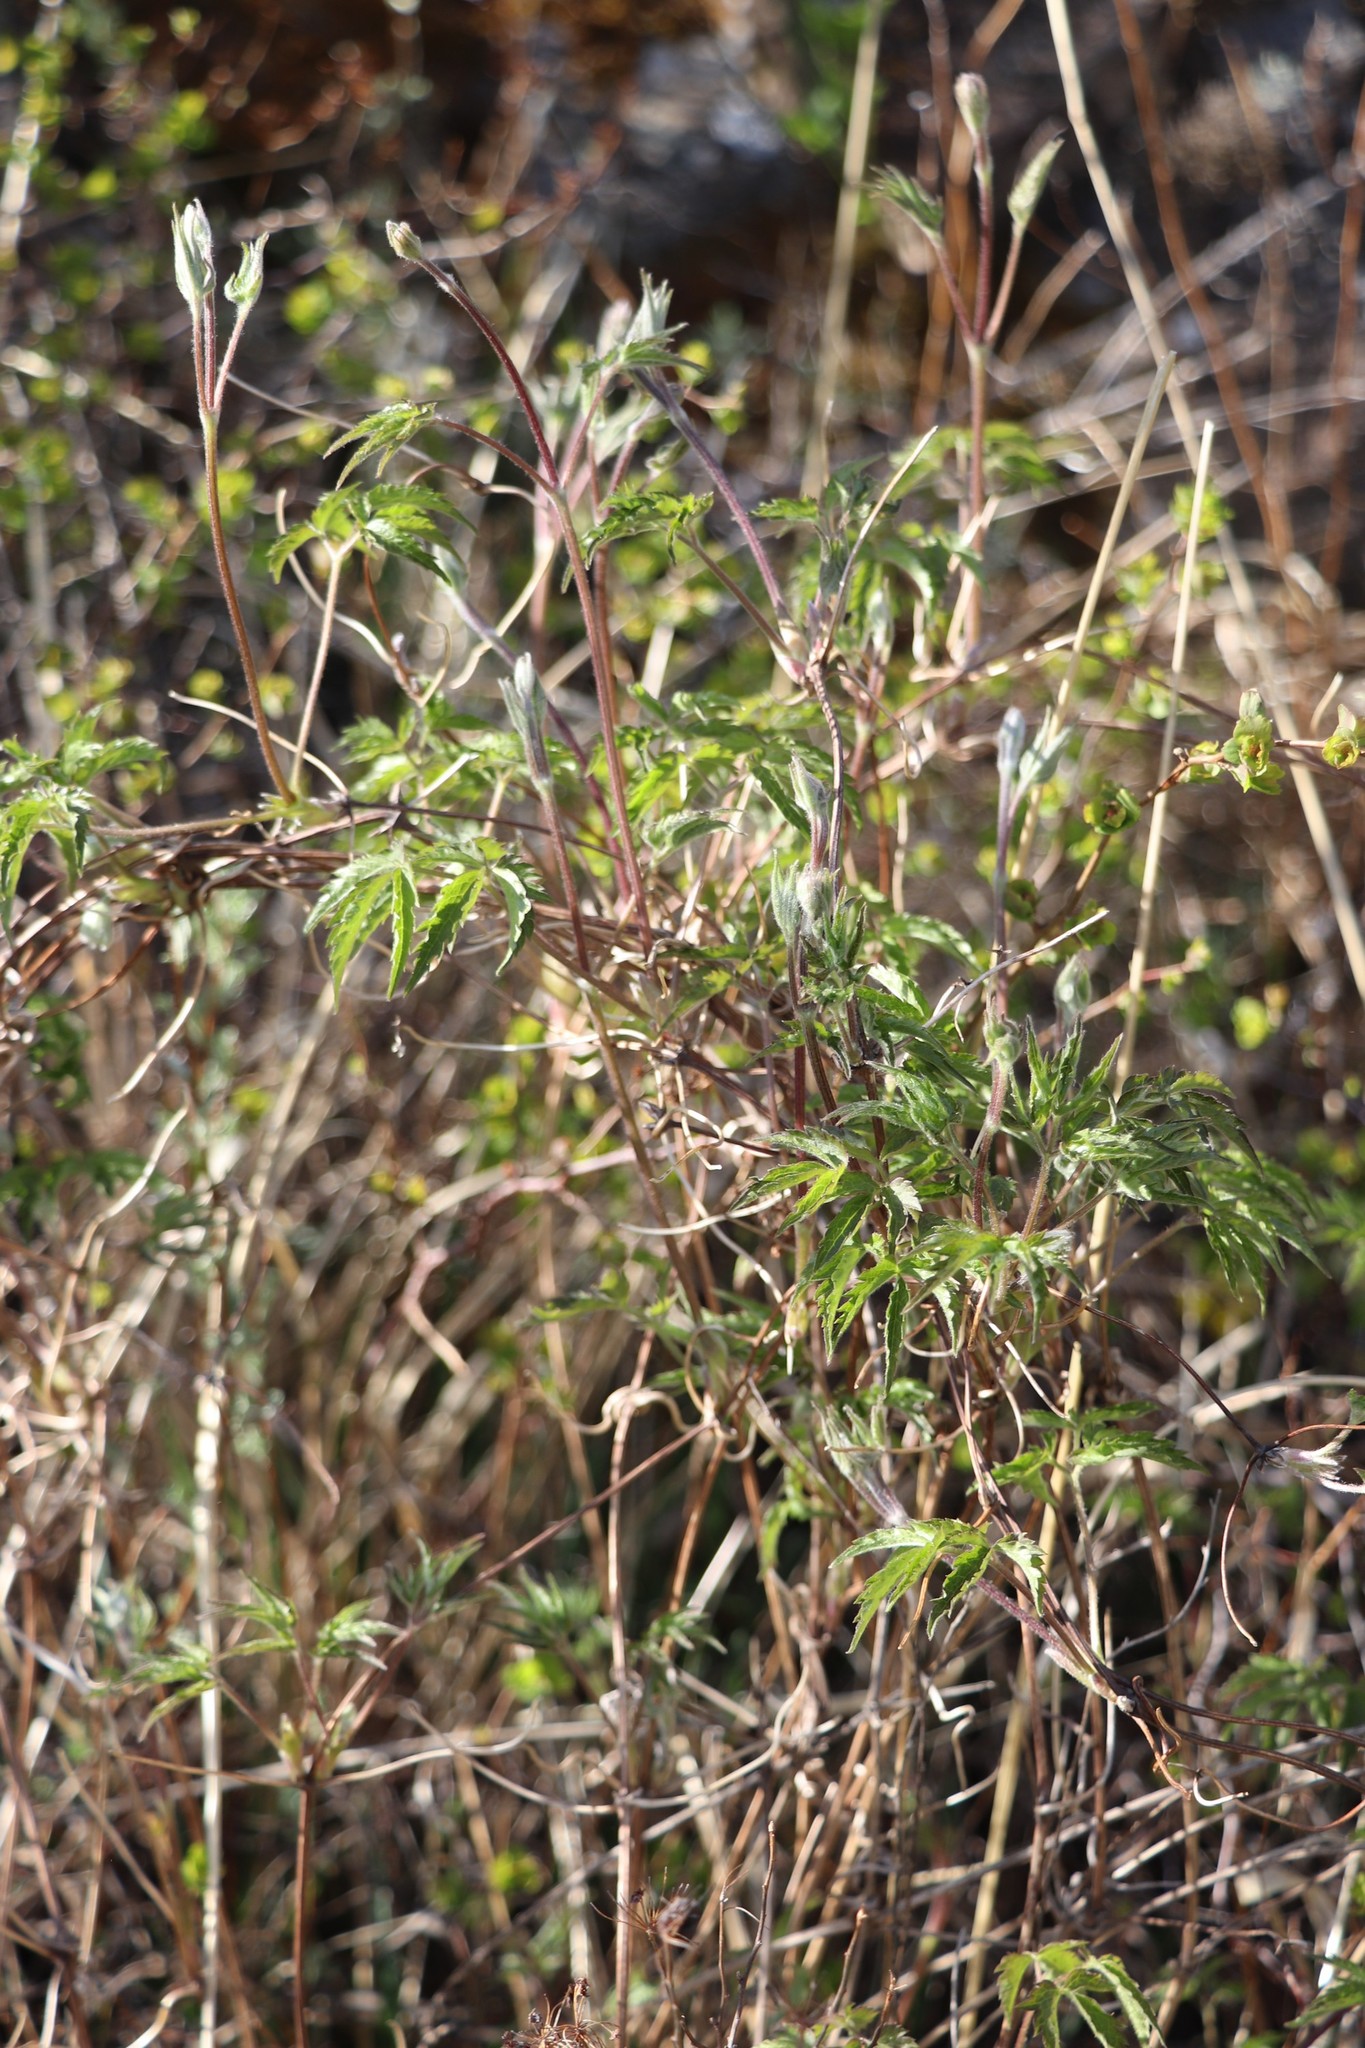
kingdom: Plantae
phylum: Tracheophyta
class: Magnoliopsida
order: Ranunculales
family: Ranunculaceae
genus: Clematis
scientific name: Clematis sibirica
